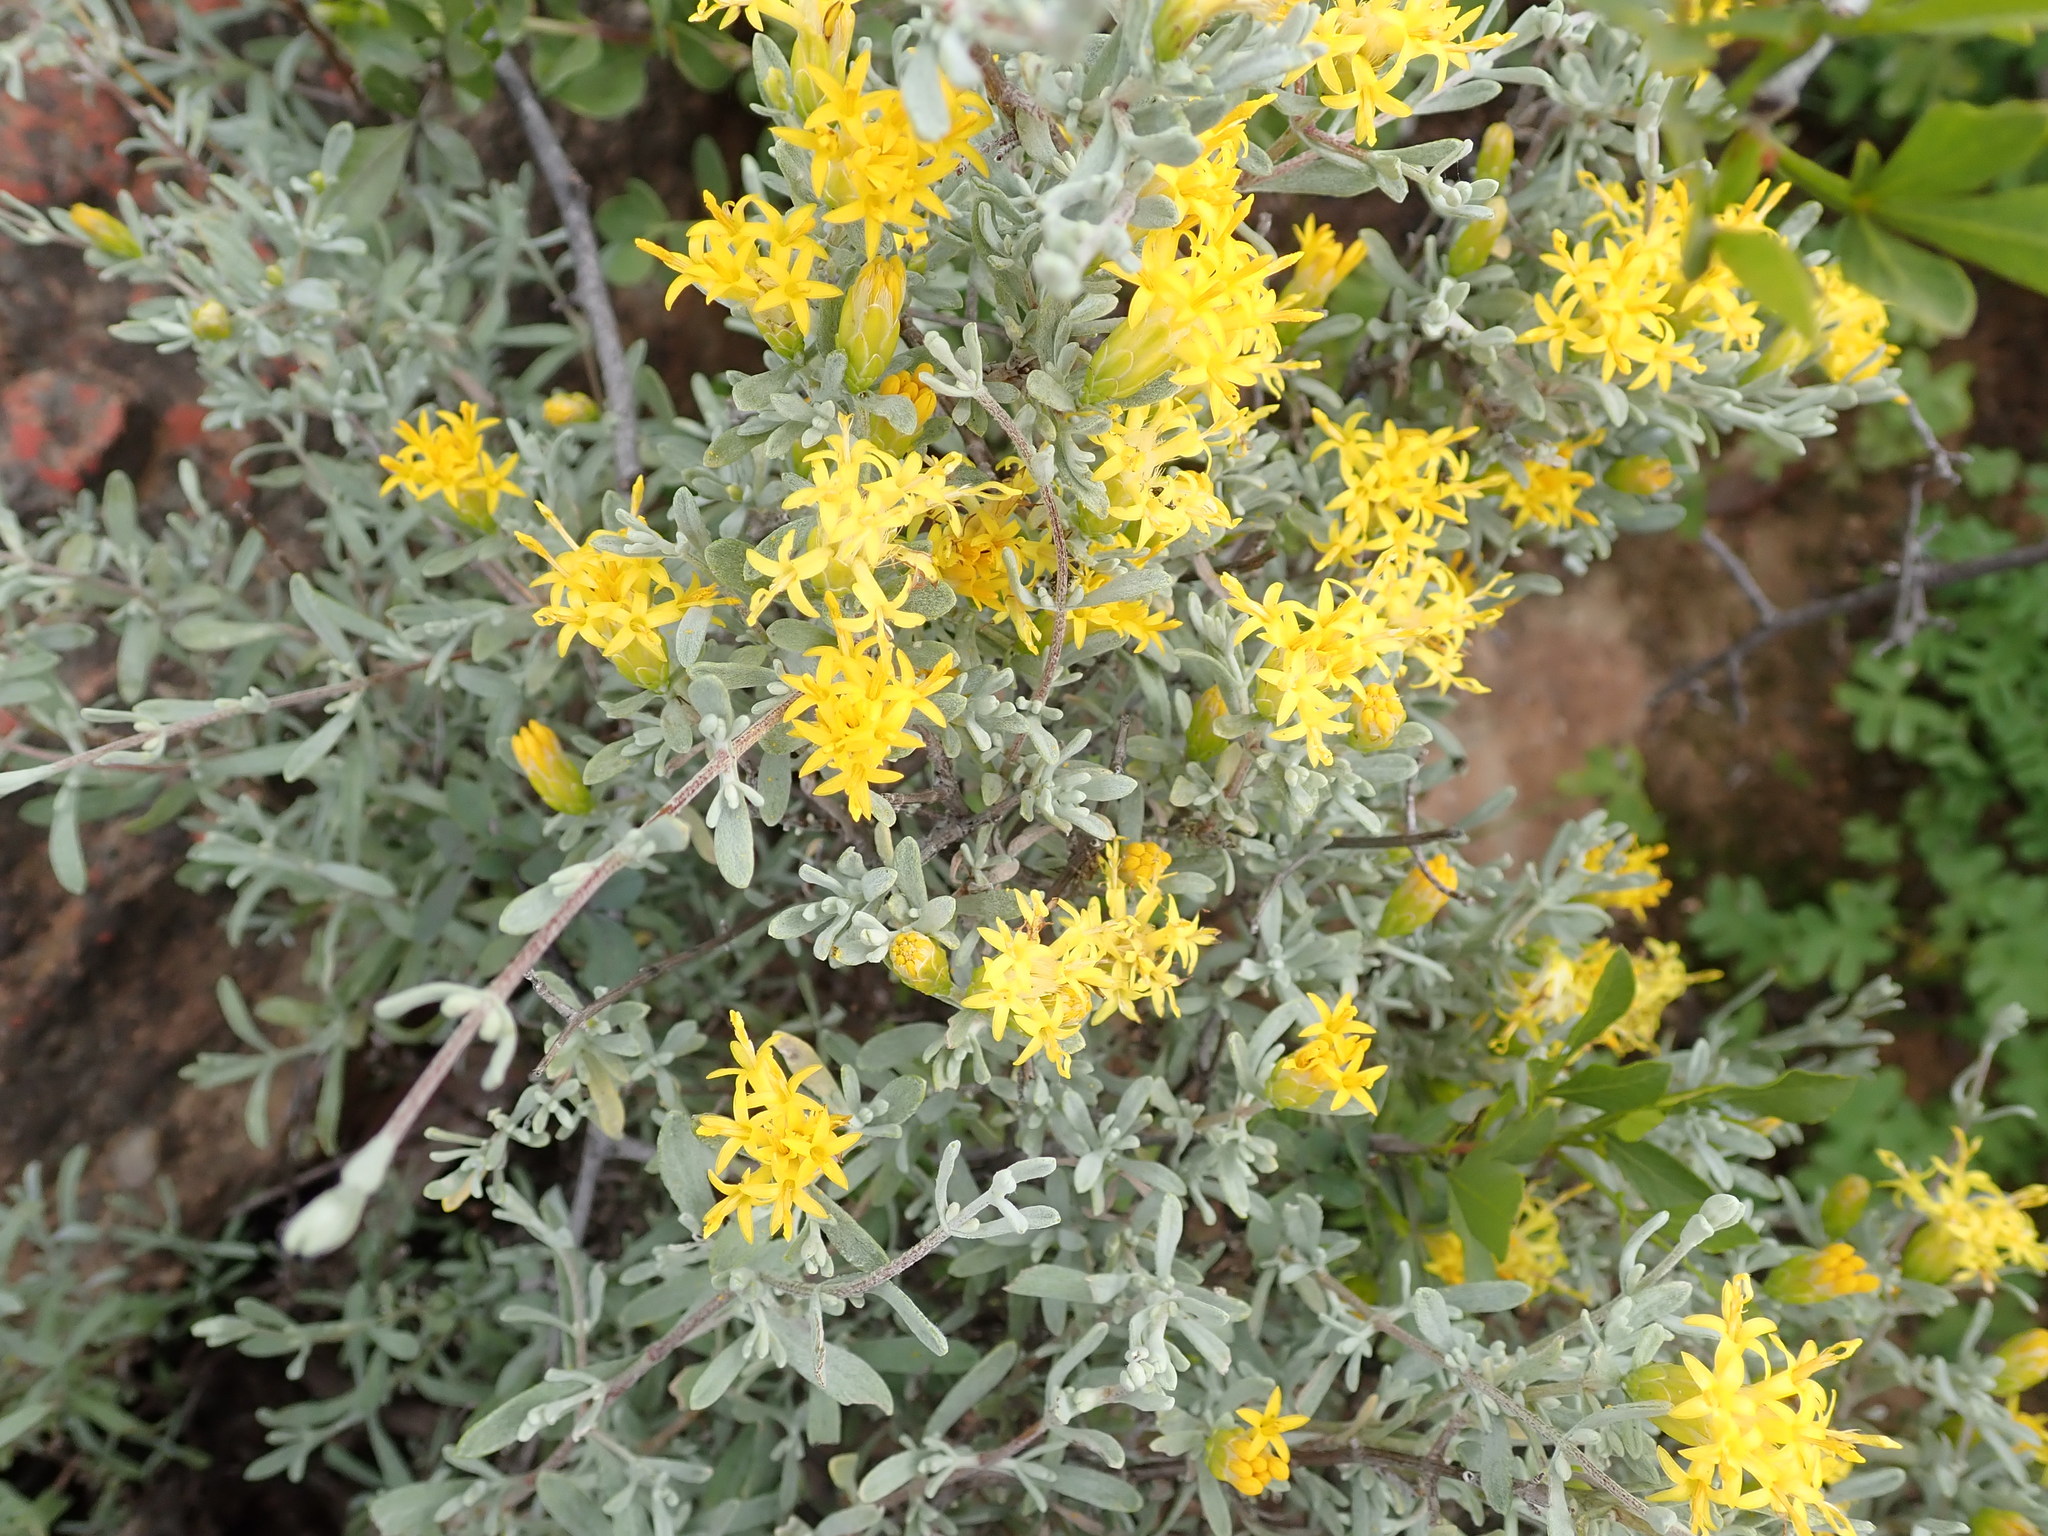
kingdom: Plantae
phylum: Tracheophyta
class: Magnoliopsida
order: Asterales
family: Asteraceae
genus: Pteronia
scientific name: Pteronia incana
